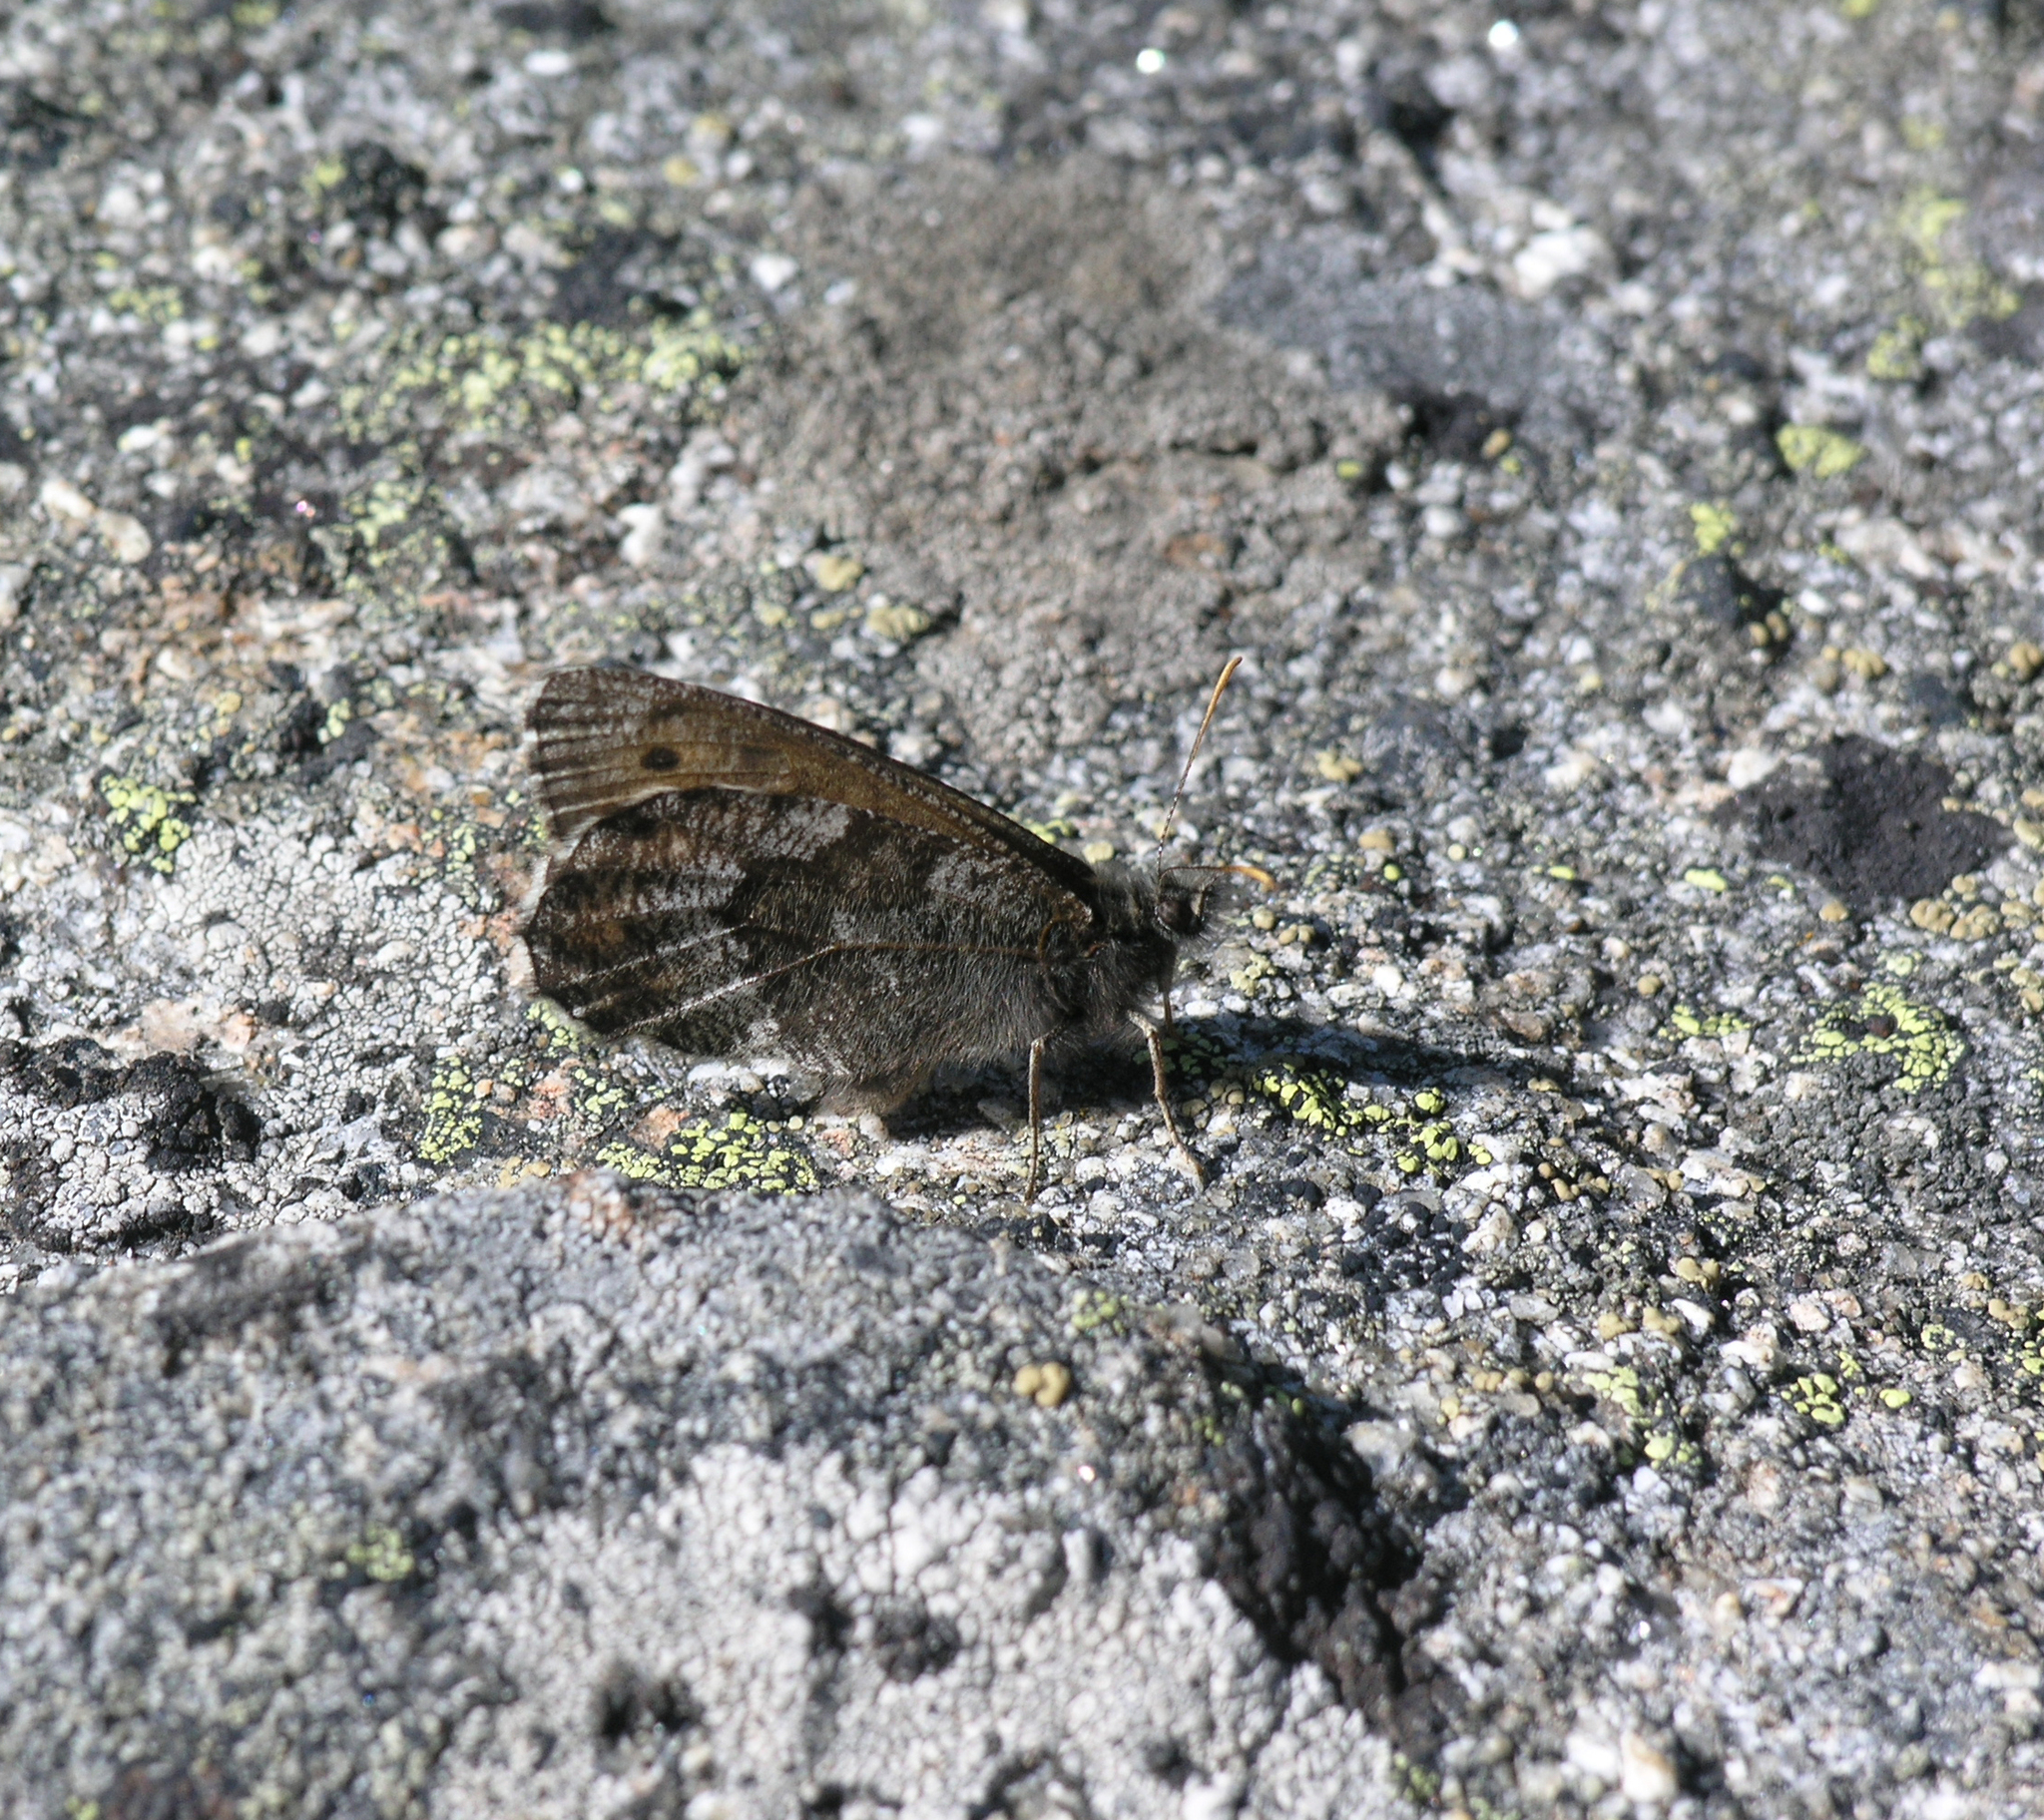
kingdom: Animalia
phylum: Arthropoda
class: Insecta
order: Lepidoptera
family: Nymphalidae
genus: Oeneis
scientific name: Oeneis jutta
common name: Baltic grayling
